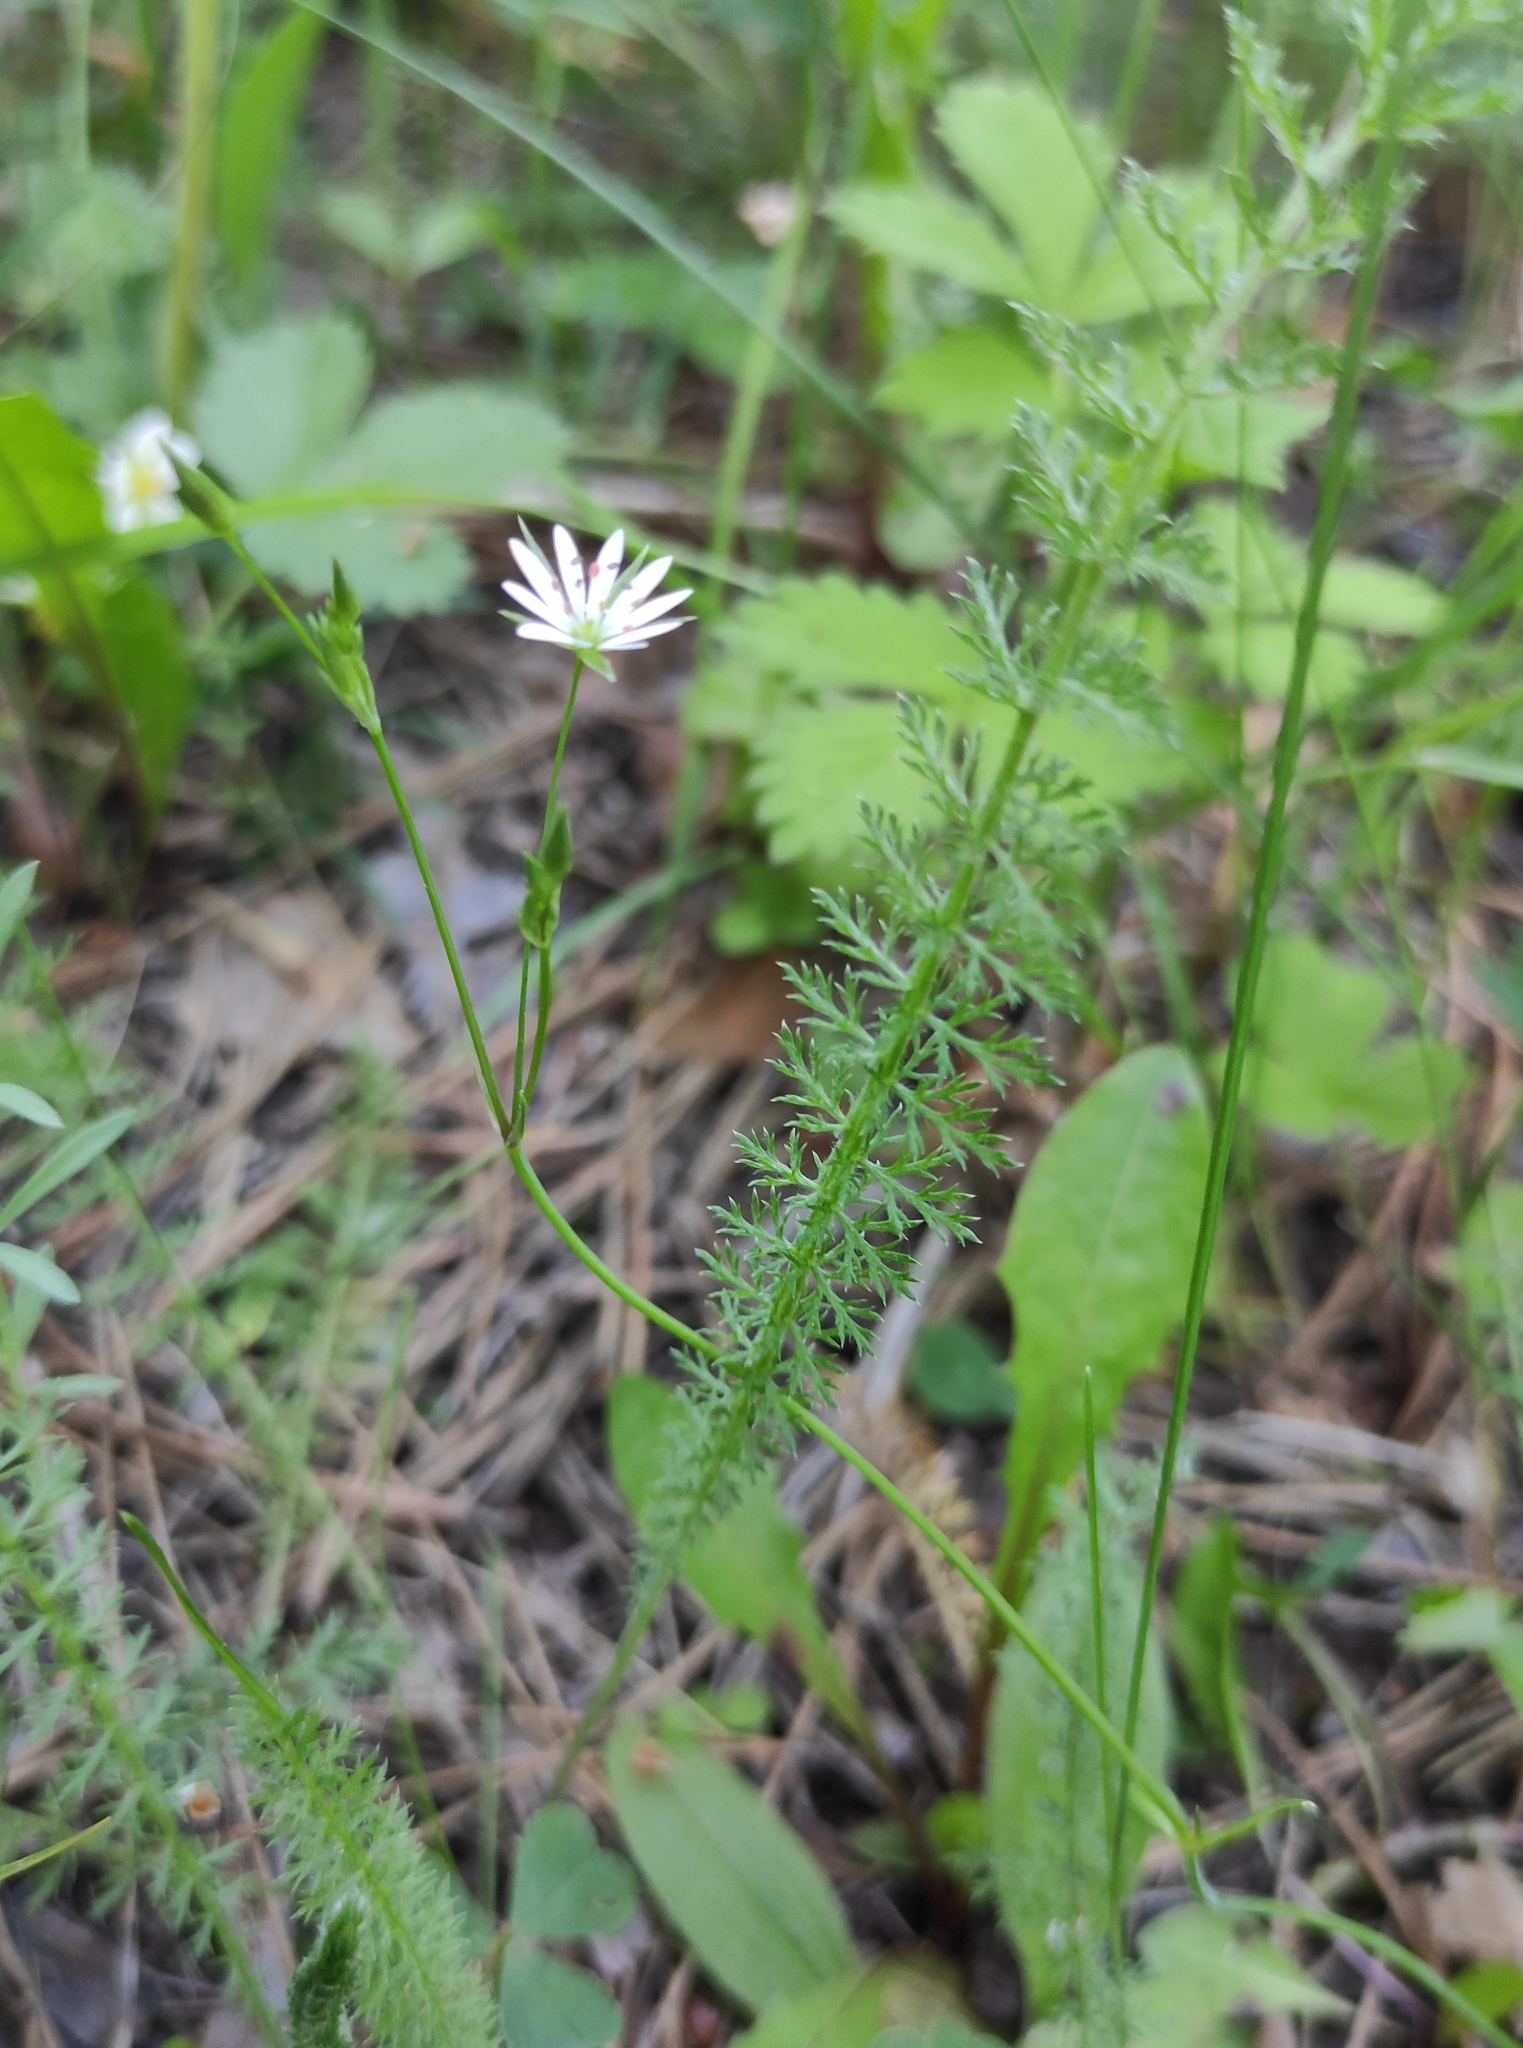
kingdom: Plantae
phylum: Tracheophyta
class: Magnoliopsida
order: Caryophyllales
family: Caryophyllaceae
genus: Stellaria
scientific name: Stellaria graminea
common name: Grass-like starwort
